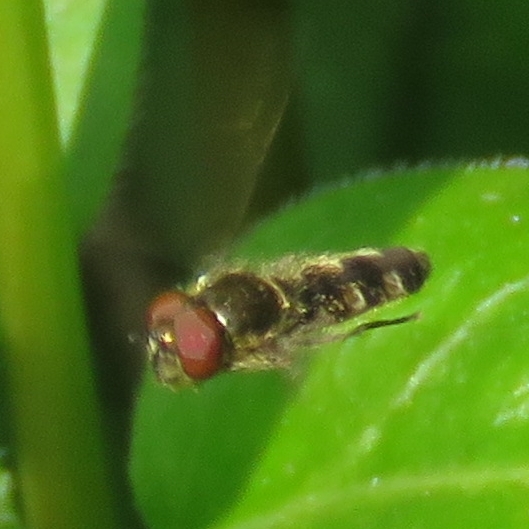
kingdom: Animalia
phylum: Arthropoda
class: Insecta
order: Diptera
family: Syrphidae
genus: Platycheirus
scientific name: Platycheirus
